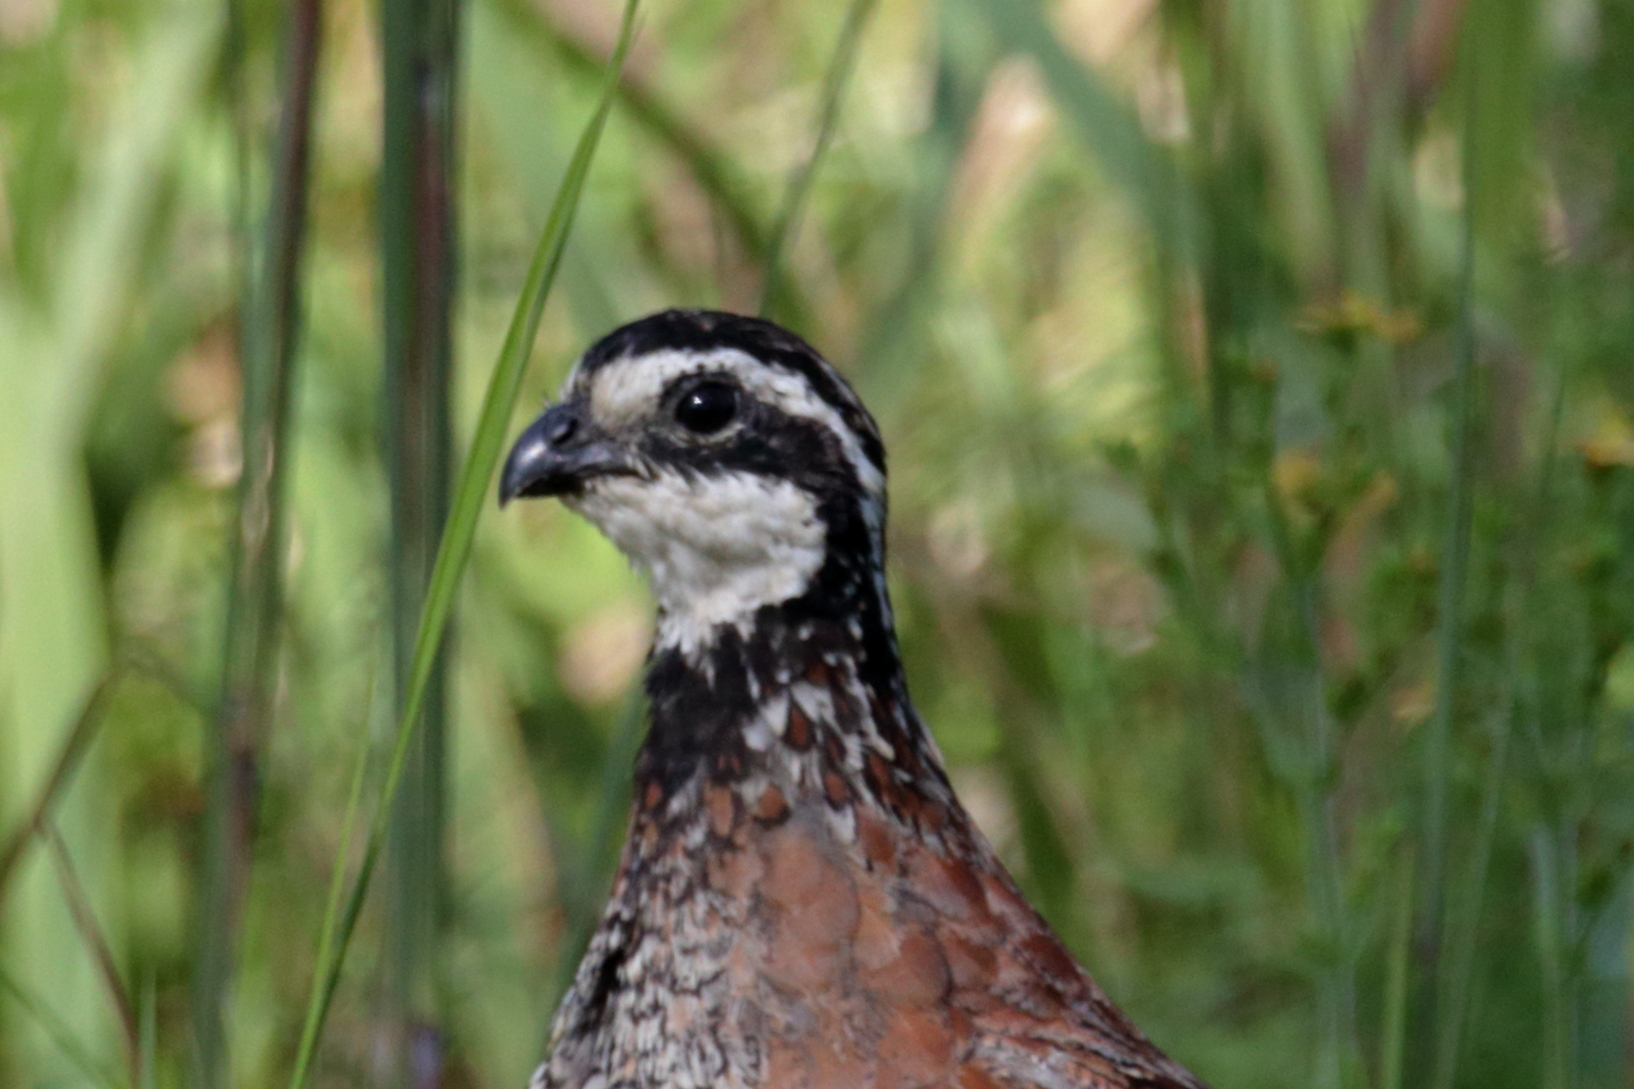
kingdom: Animalia
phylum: Chordata
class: Aves
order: Galliformes
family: Odontophoridae
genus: Colinus
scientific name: Colinus virginianus
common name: Northern bobwhite
